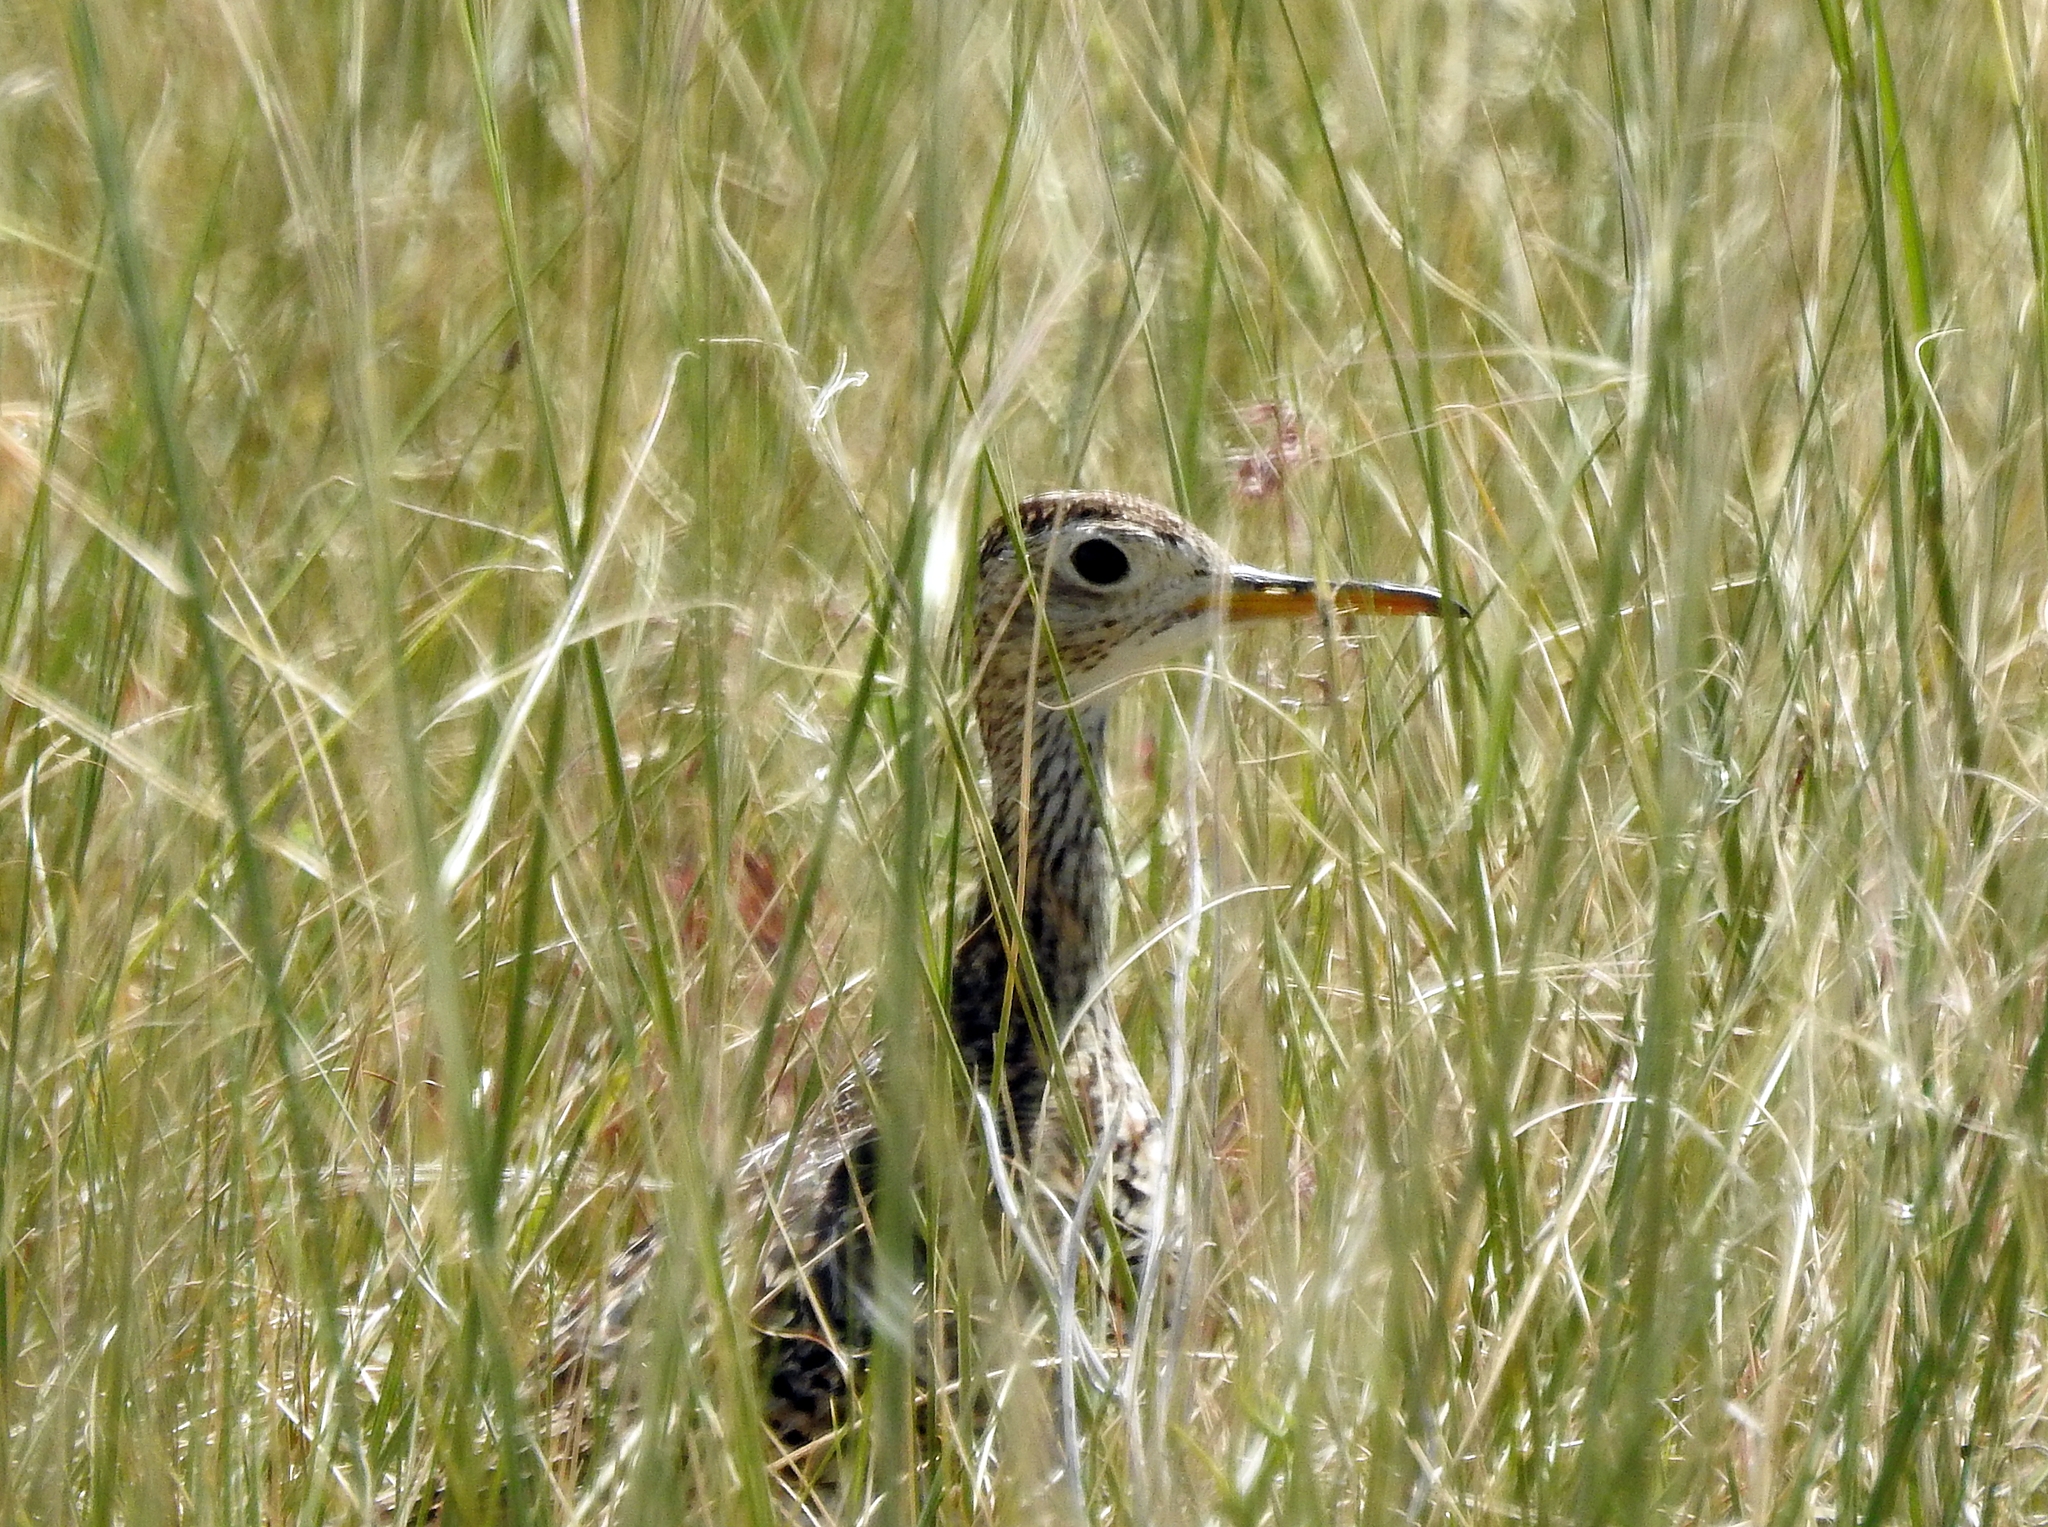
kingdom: Animalia
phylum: Chordata
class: Aves
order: Charadriiformes
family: Scolopacidae
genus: Bartramia
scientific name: Bartramia longicauda
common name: Upland sandpiper
